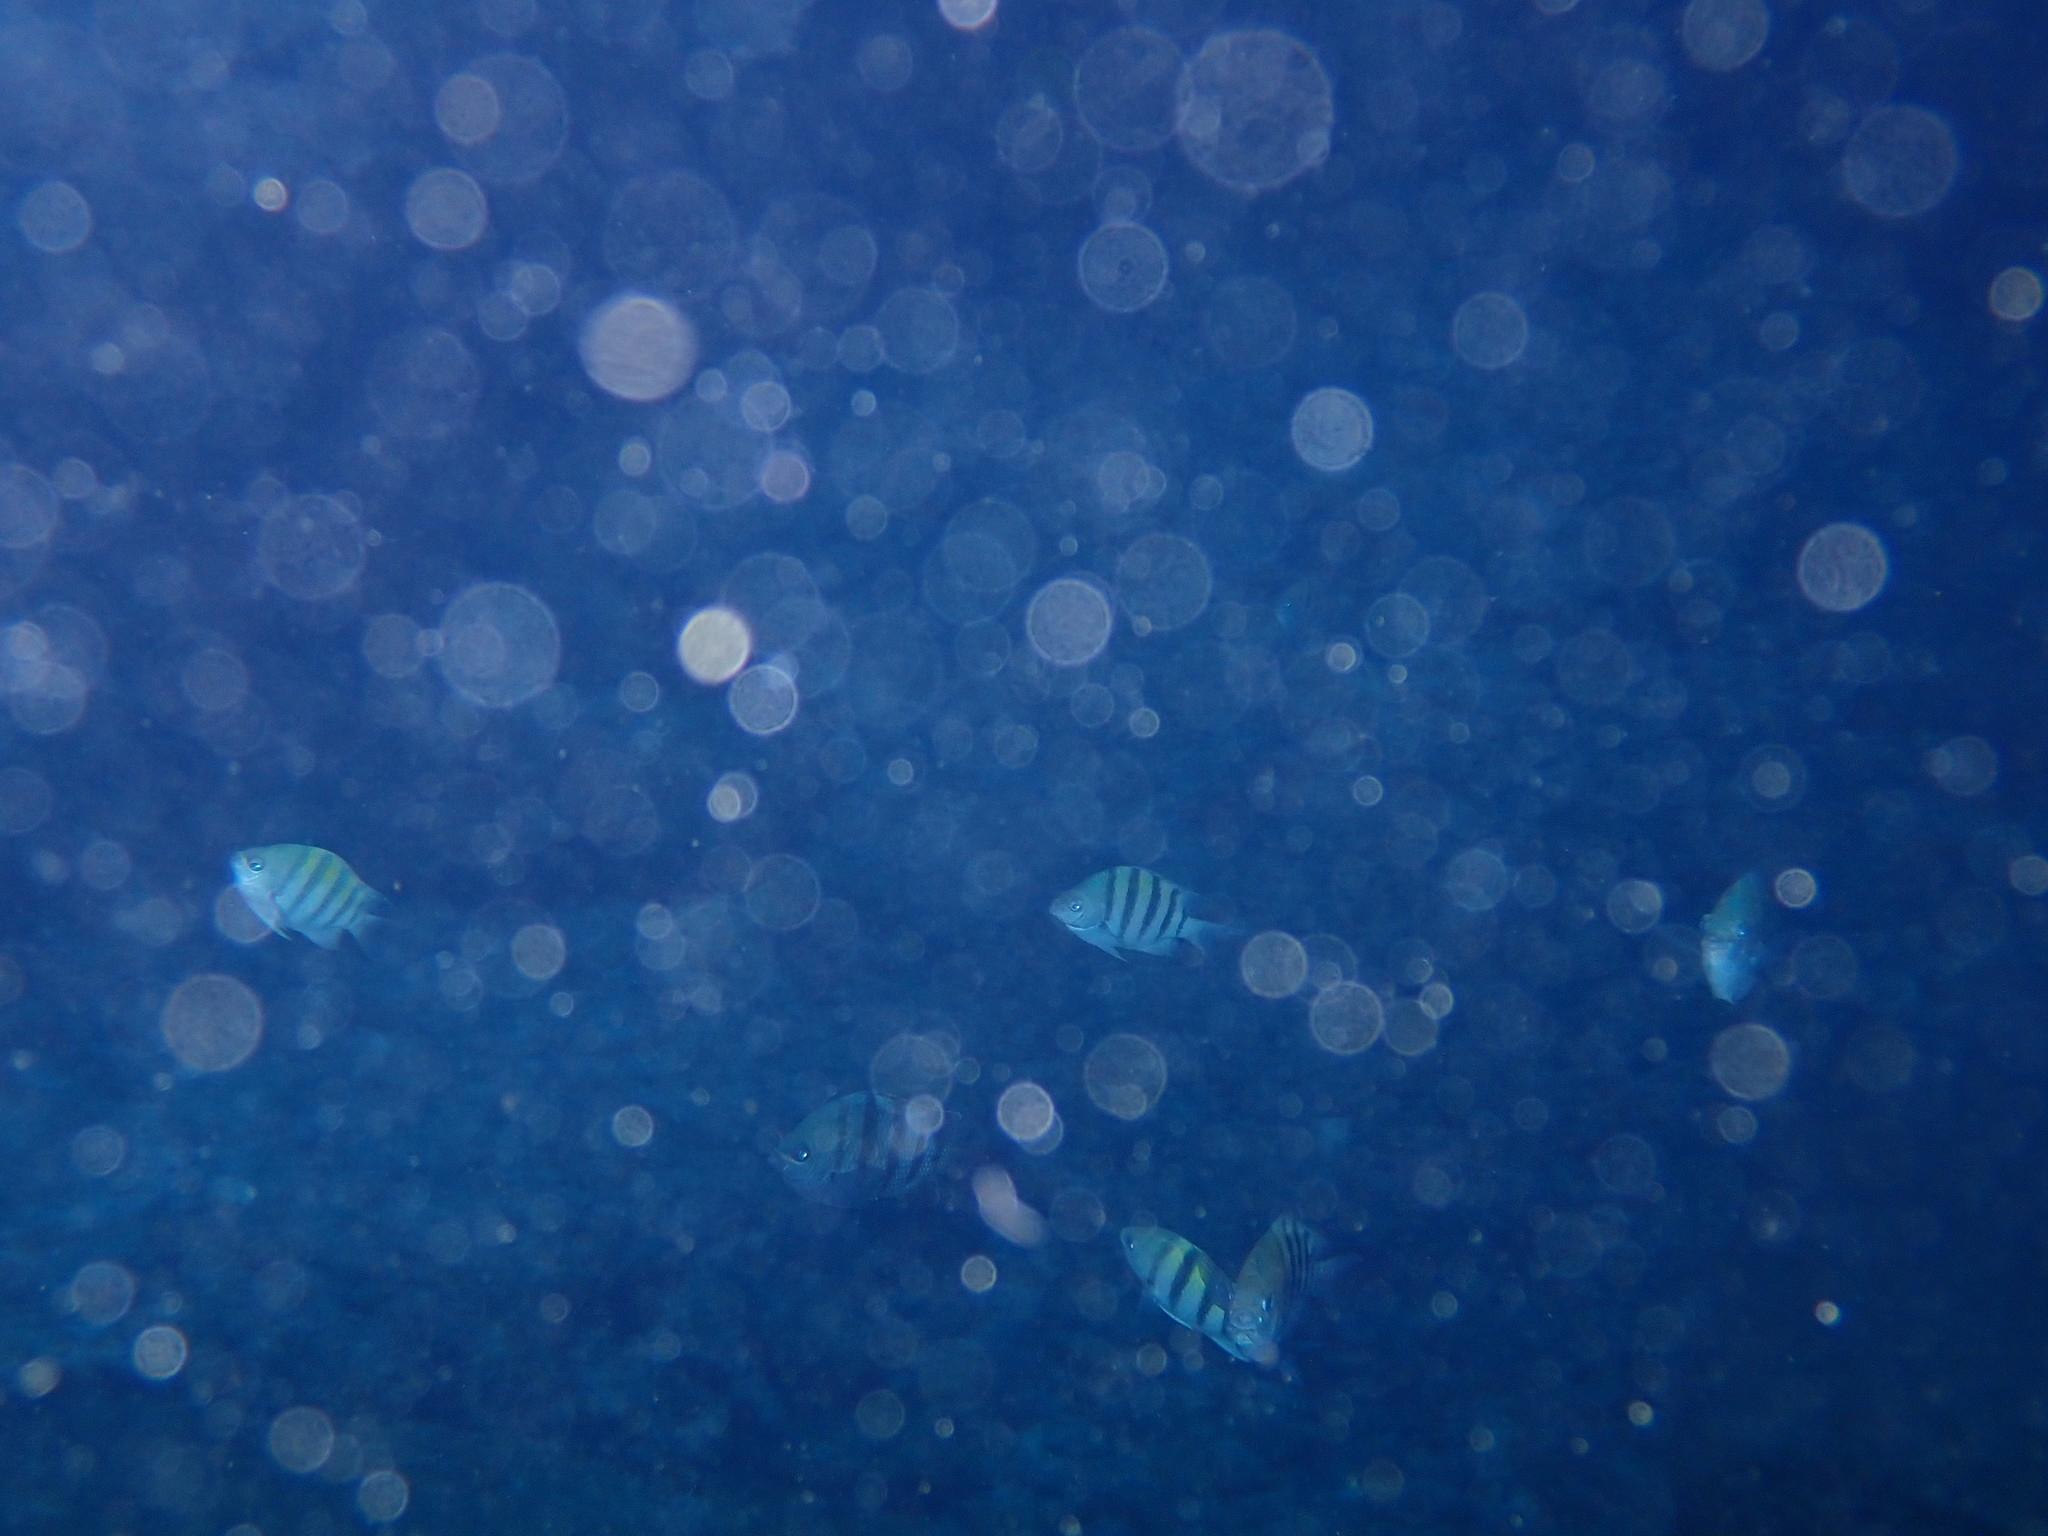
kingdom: Animalia
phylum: Chordata
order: Perciformes
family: Pomacentridae
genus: Abudefduf
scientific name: Abudefduf saxatilis
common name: Sergeant major
